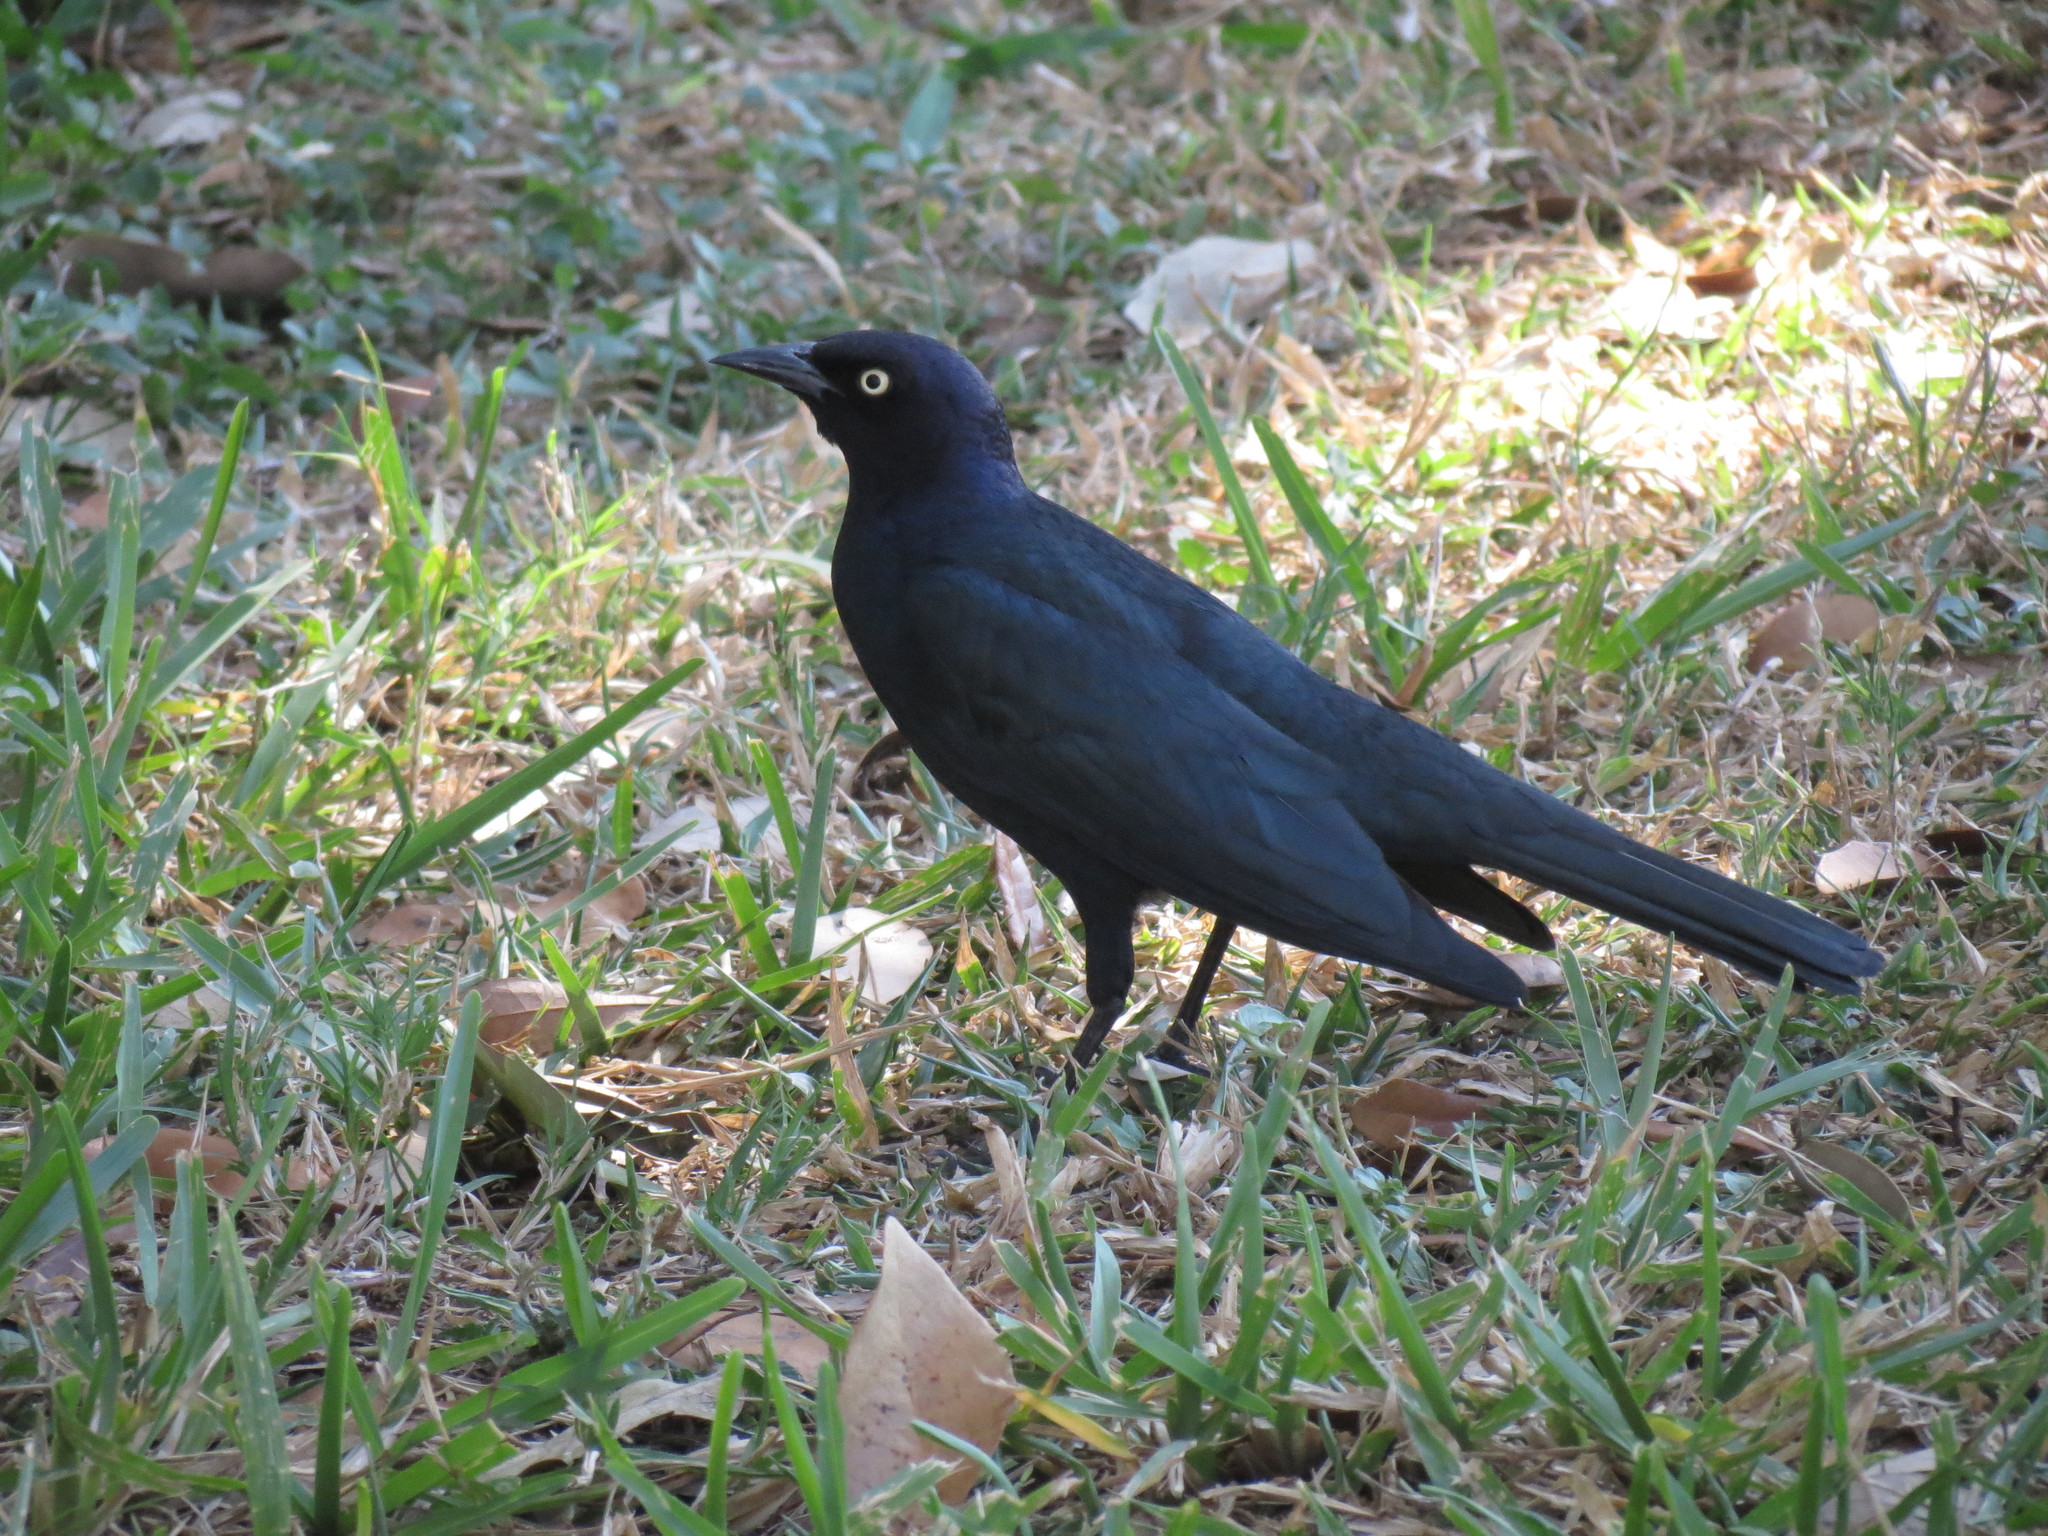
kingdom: Animalia
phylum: Chordata
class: Aves
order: Passeriformes
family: Icteridae
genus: Euphagus
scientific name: Euphagus cyanocephalus
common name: Brewer's blackbird
